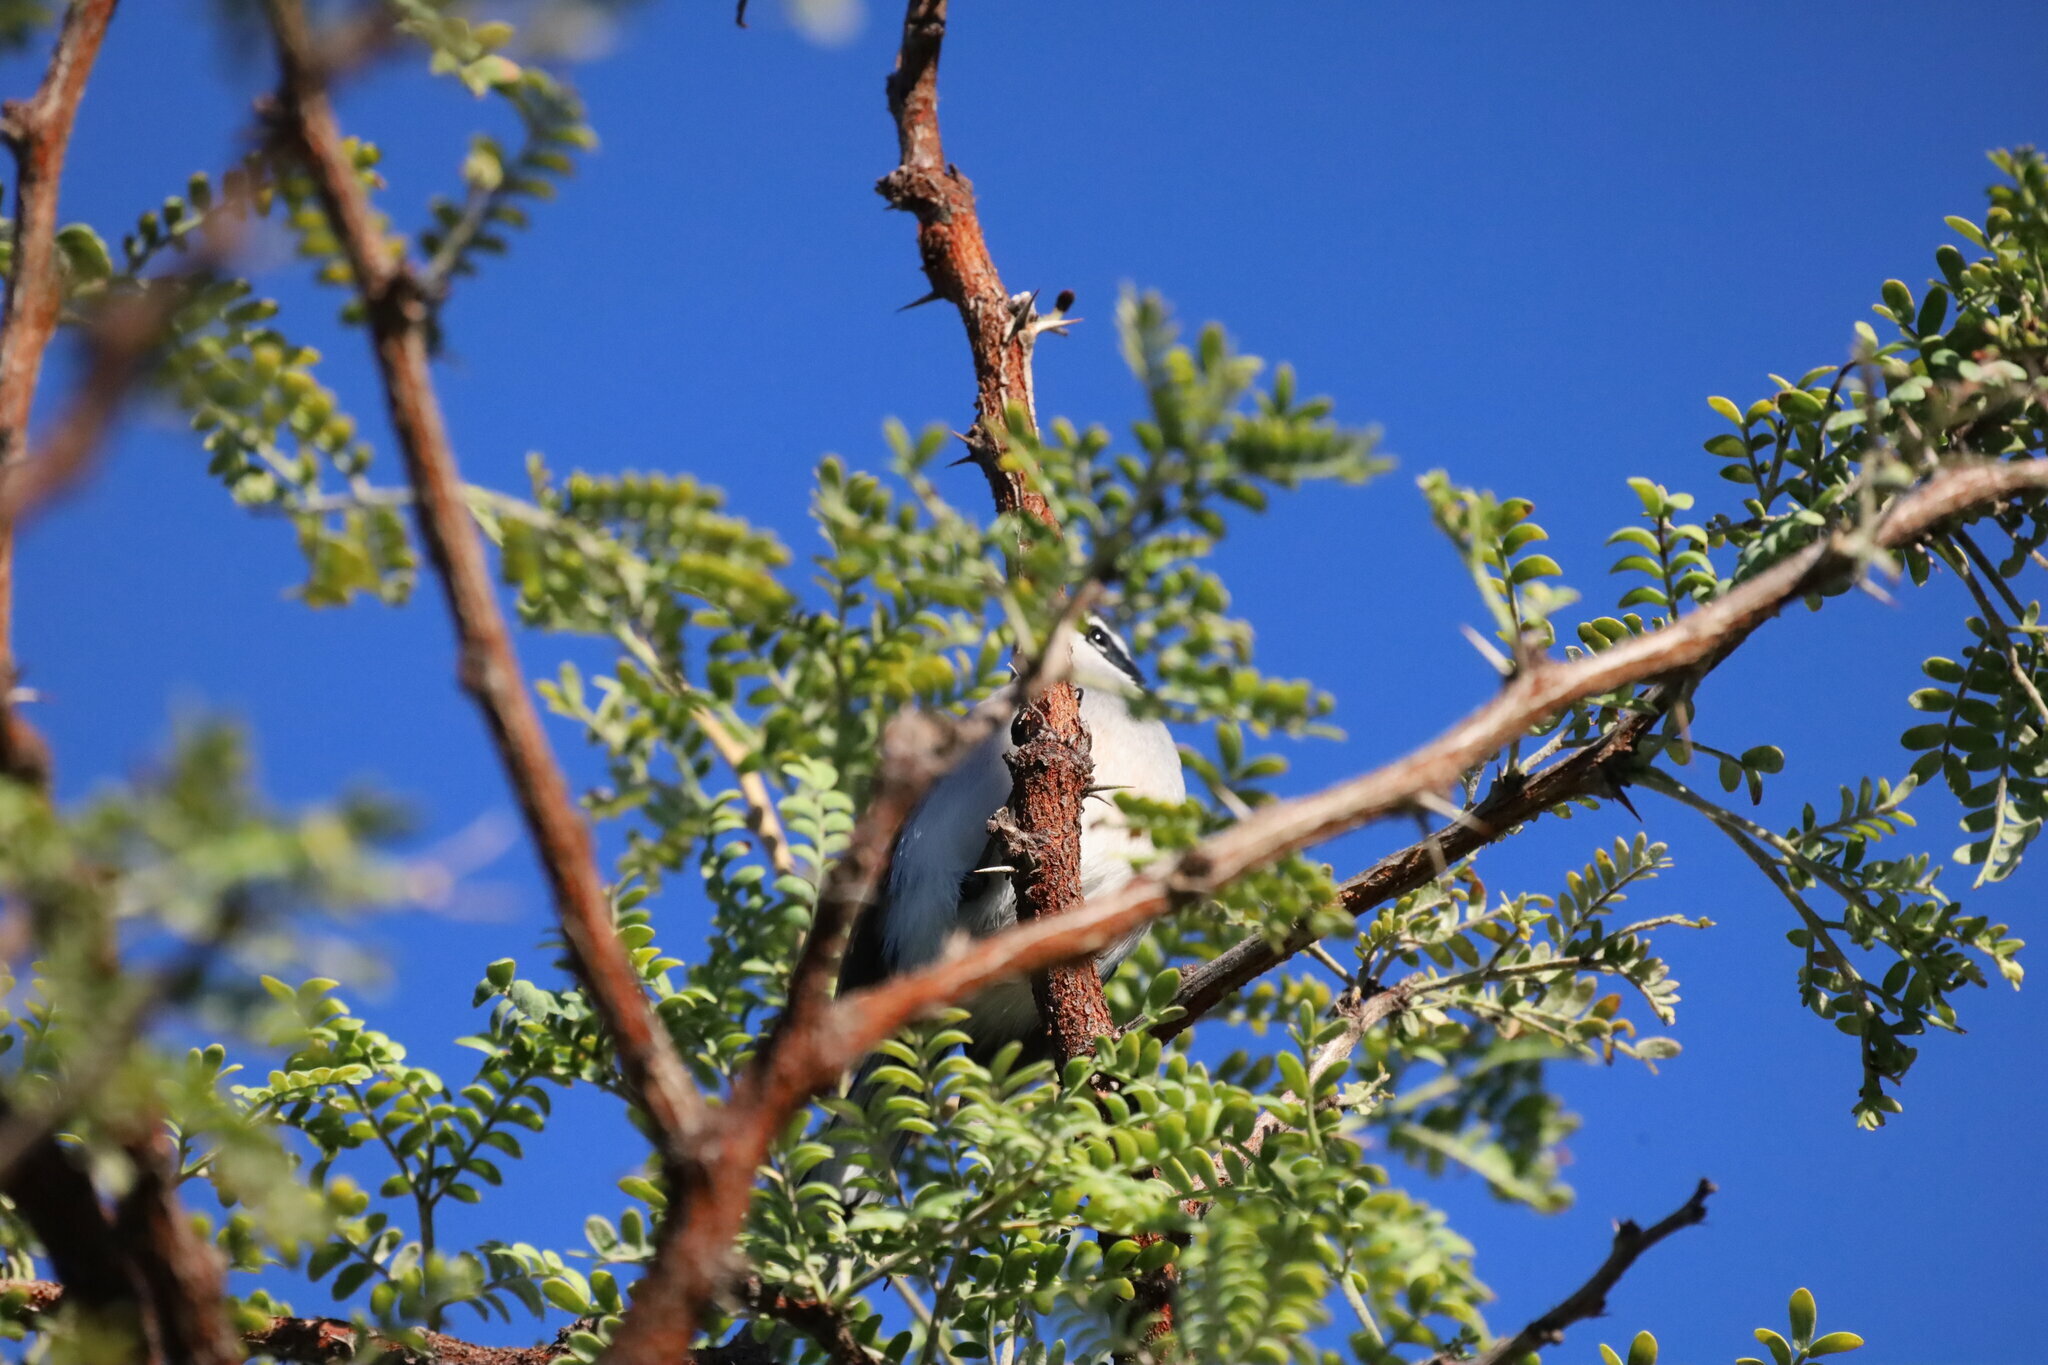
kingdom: Animalia
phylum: Chordata
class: Aves
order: Passeriformes
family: Stenostiridae
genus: Stenostira
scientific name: Stenostira scita
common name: Fairy flycatcher
